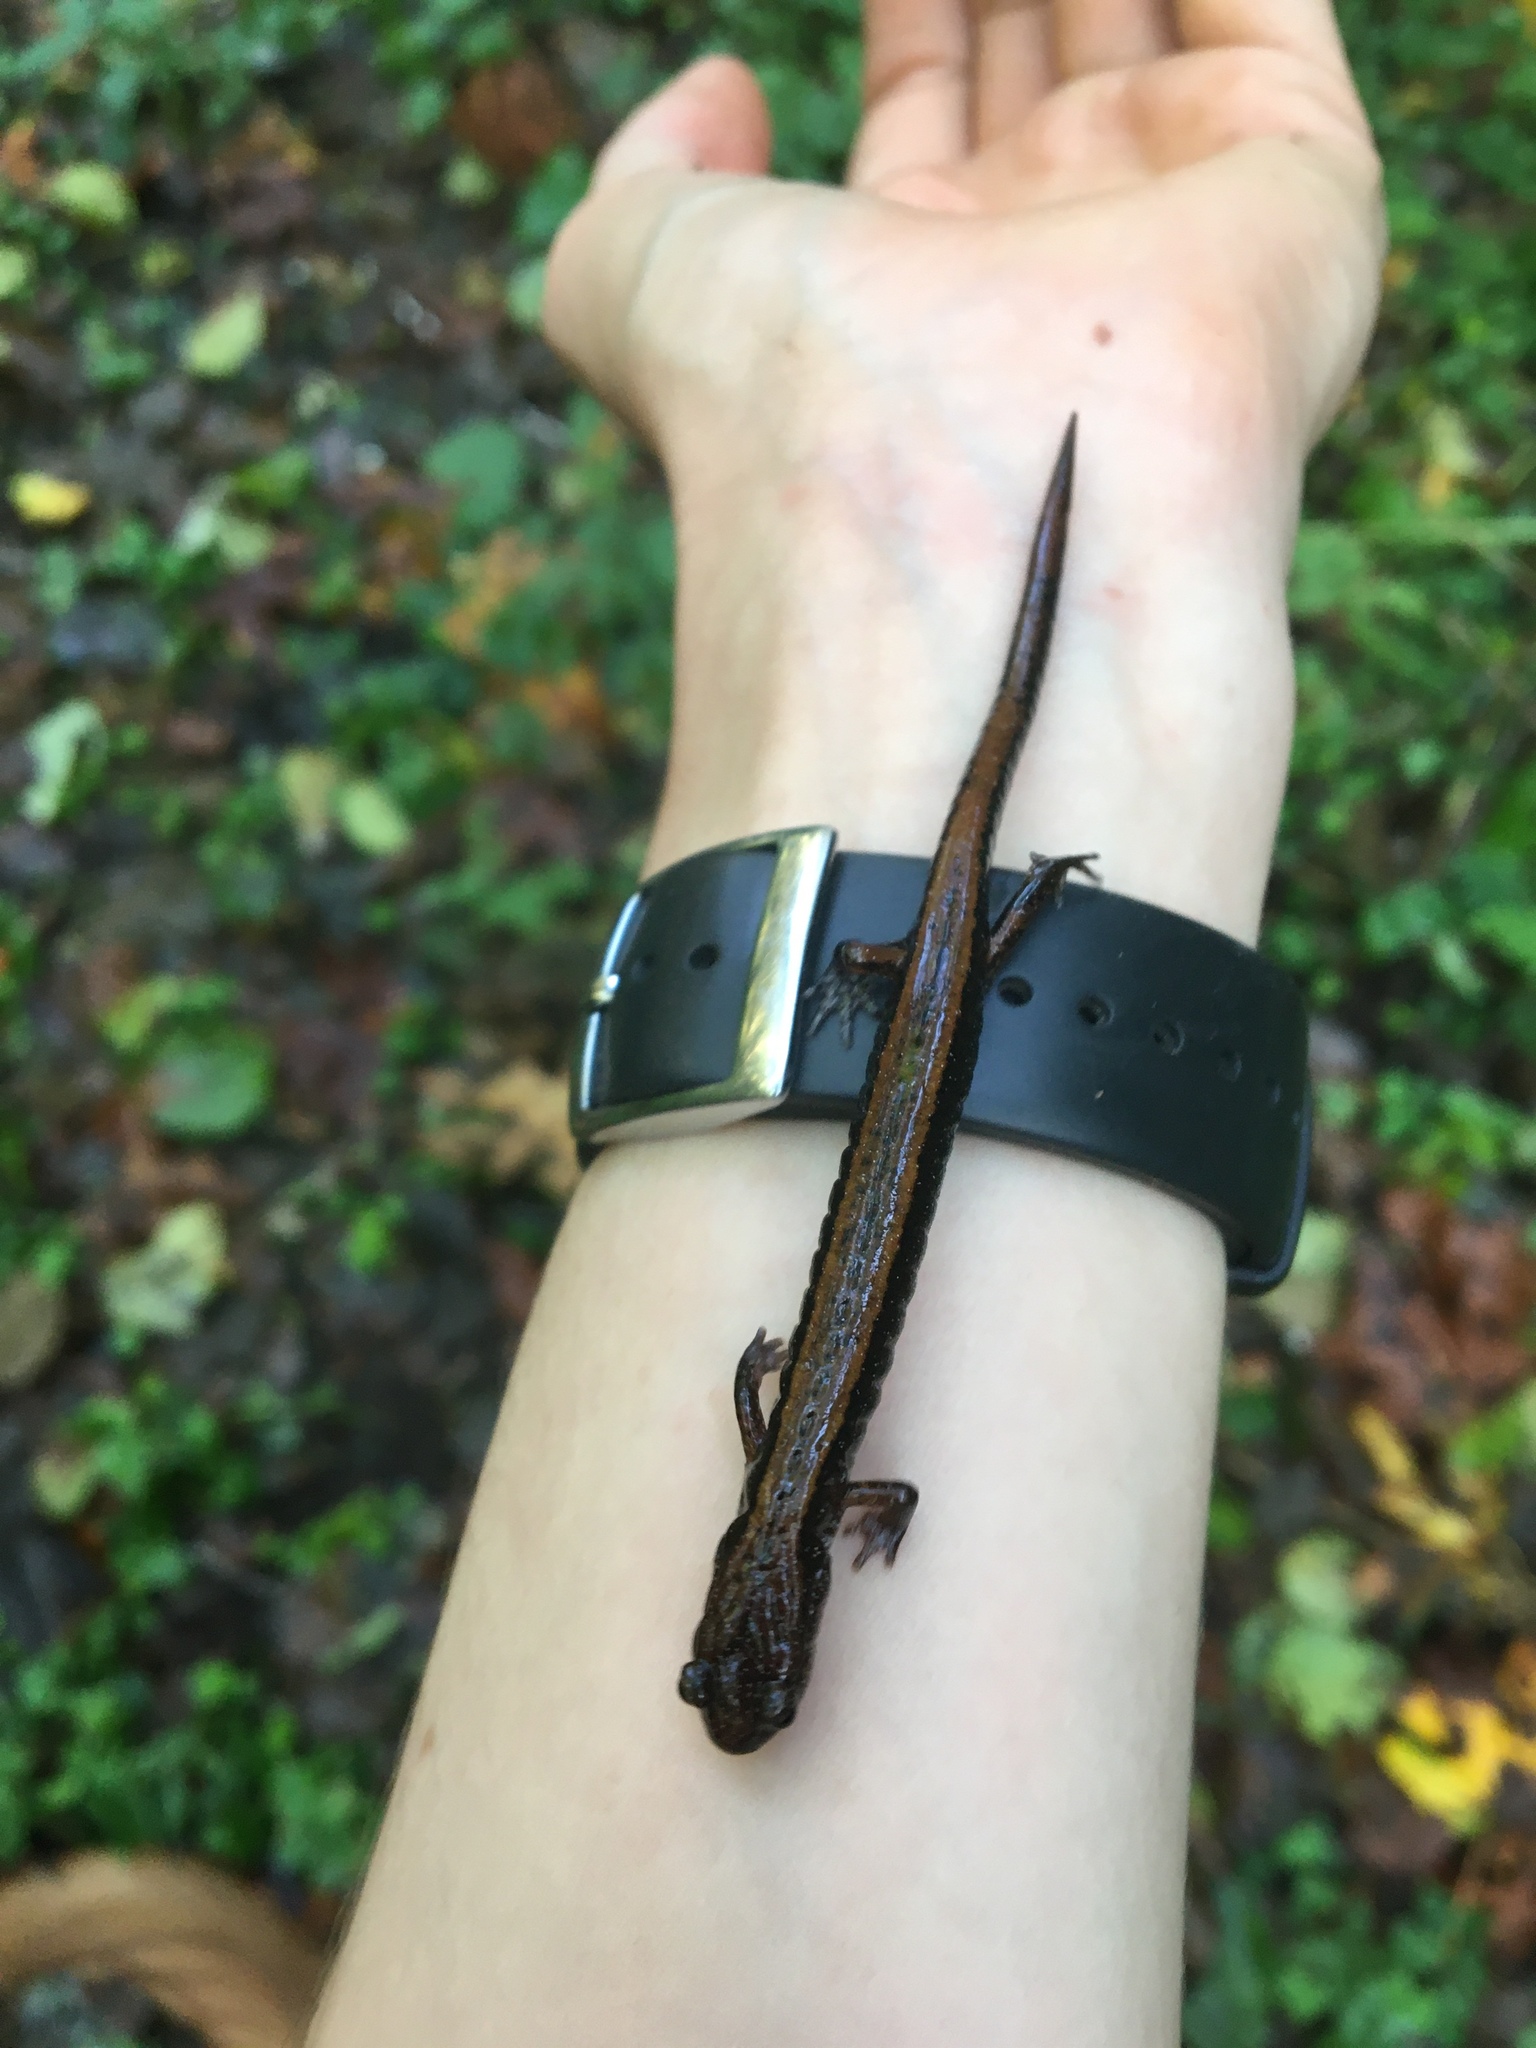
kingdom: Animalia
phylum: Chordata
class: Amphibia
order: Caudata
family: Plethodontidae
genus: Plethodon
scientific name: Plethodon vehiculum
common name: Western red-backed salamander
